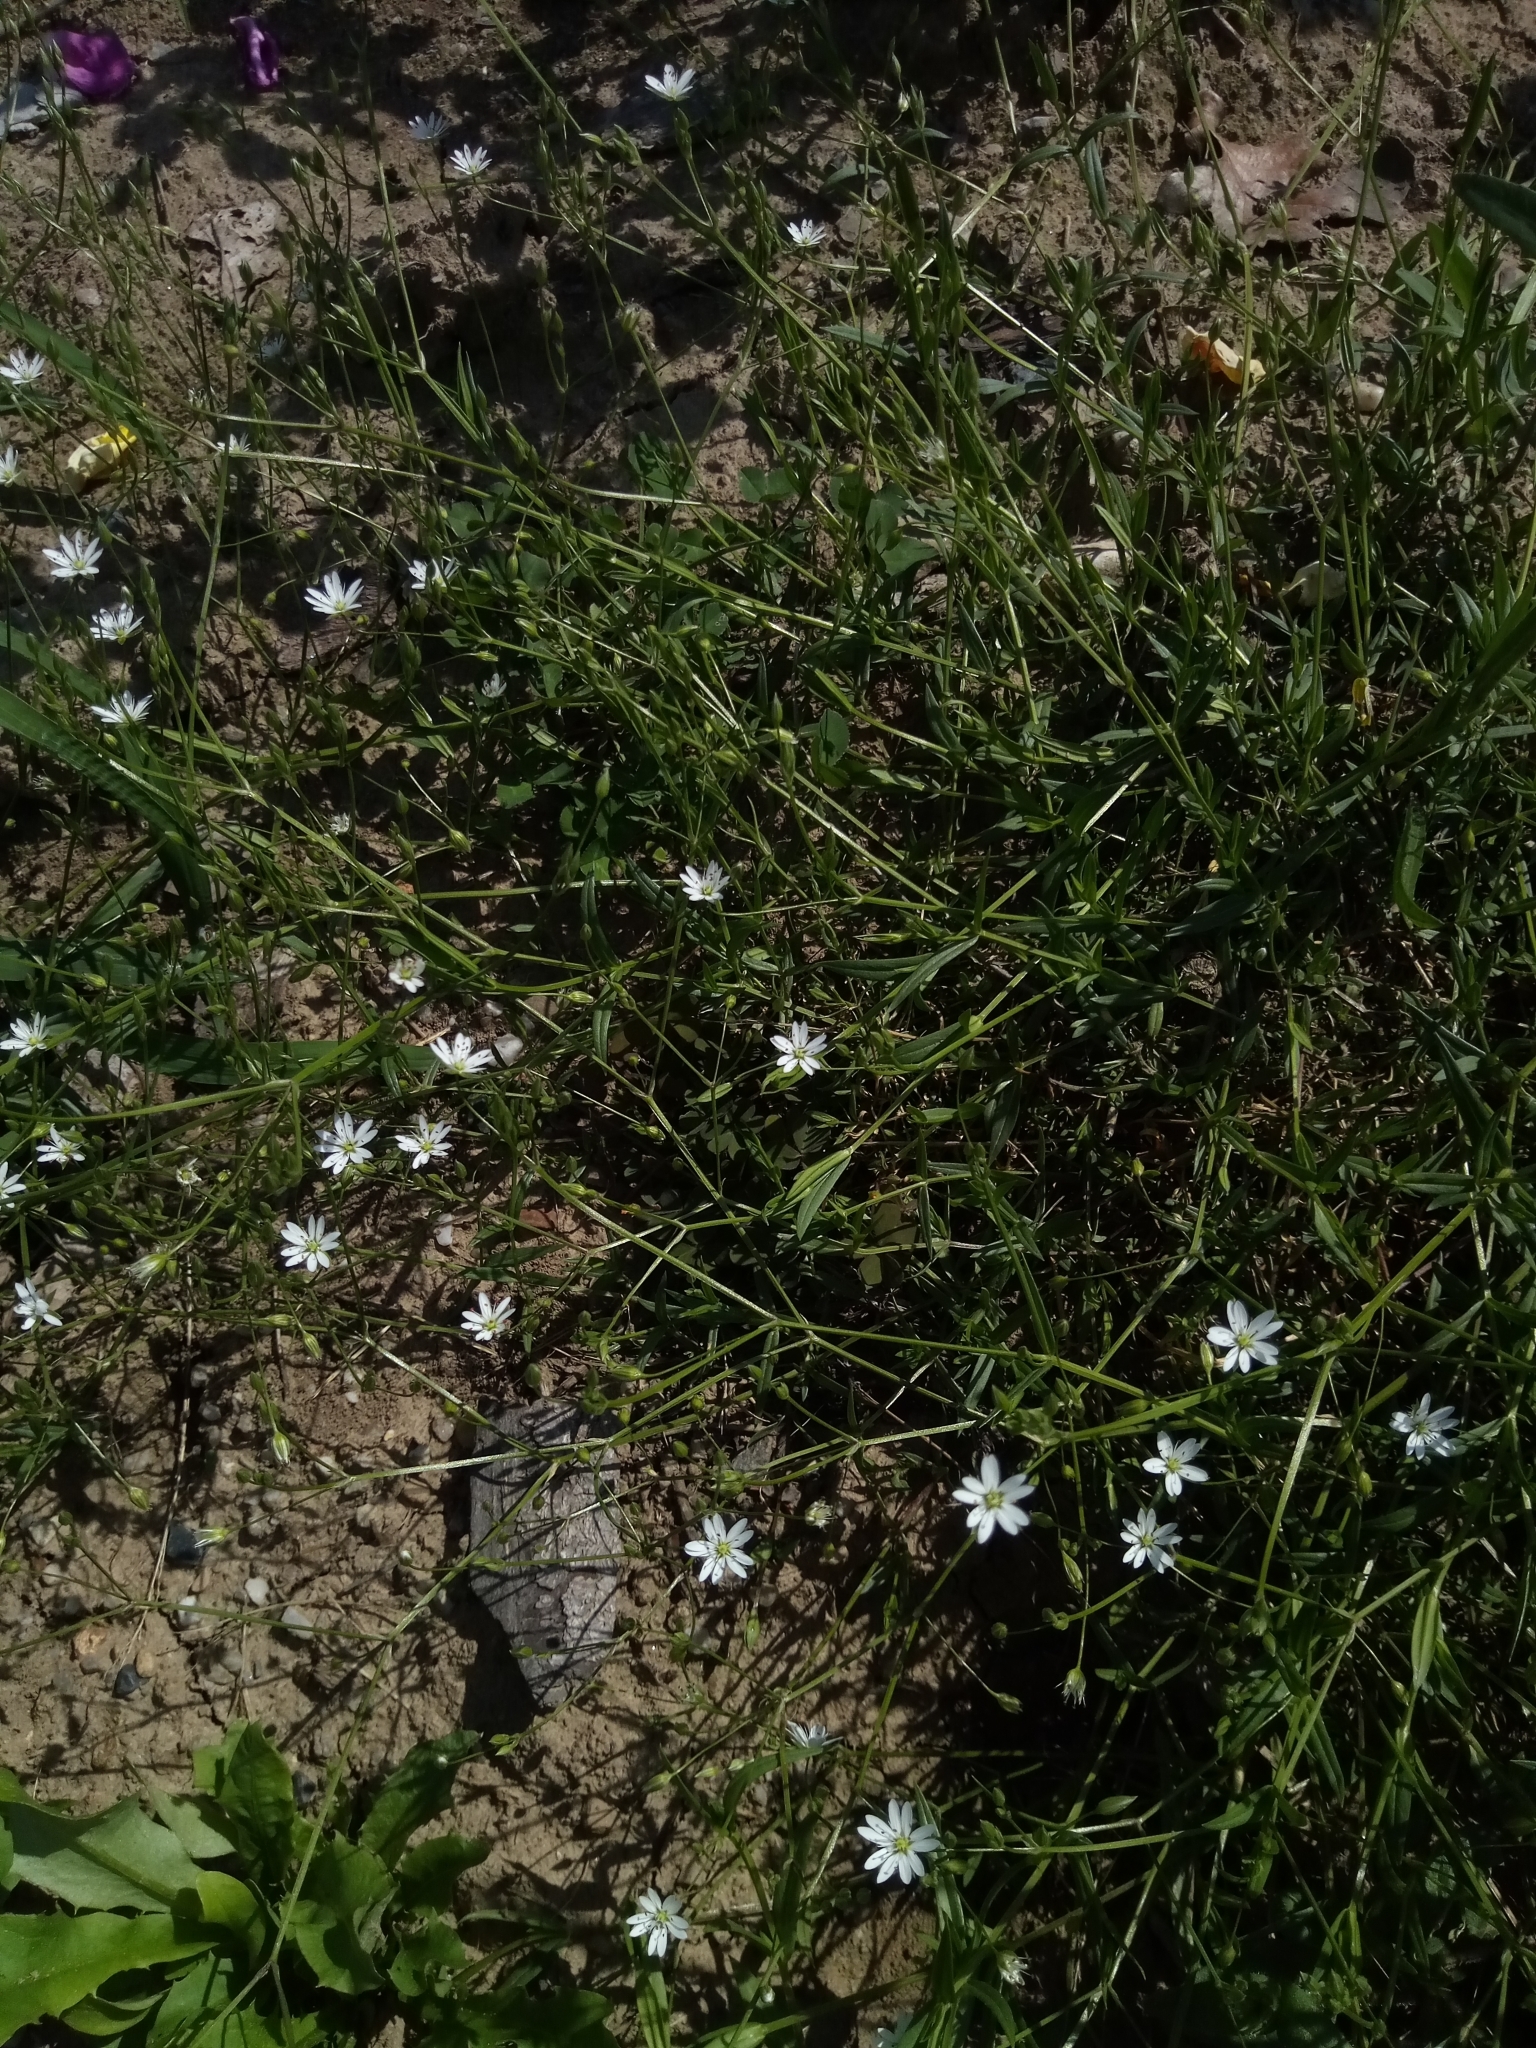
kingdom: Plantae
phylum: Tracheophyta
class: Magnoliopsida
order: Caryophyllales
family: Caryophyllaceae
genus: Stellaria
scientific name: Stellaria graminea
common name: Grass-like starwort
